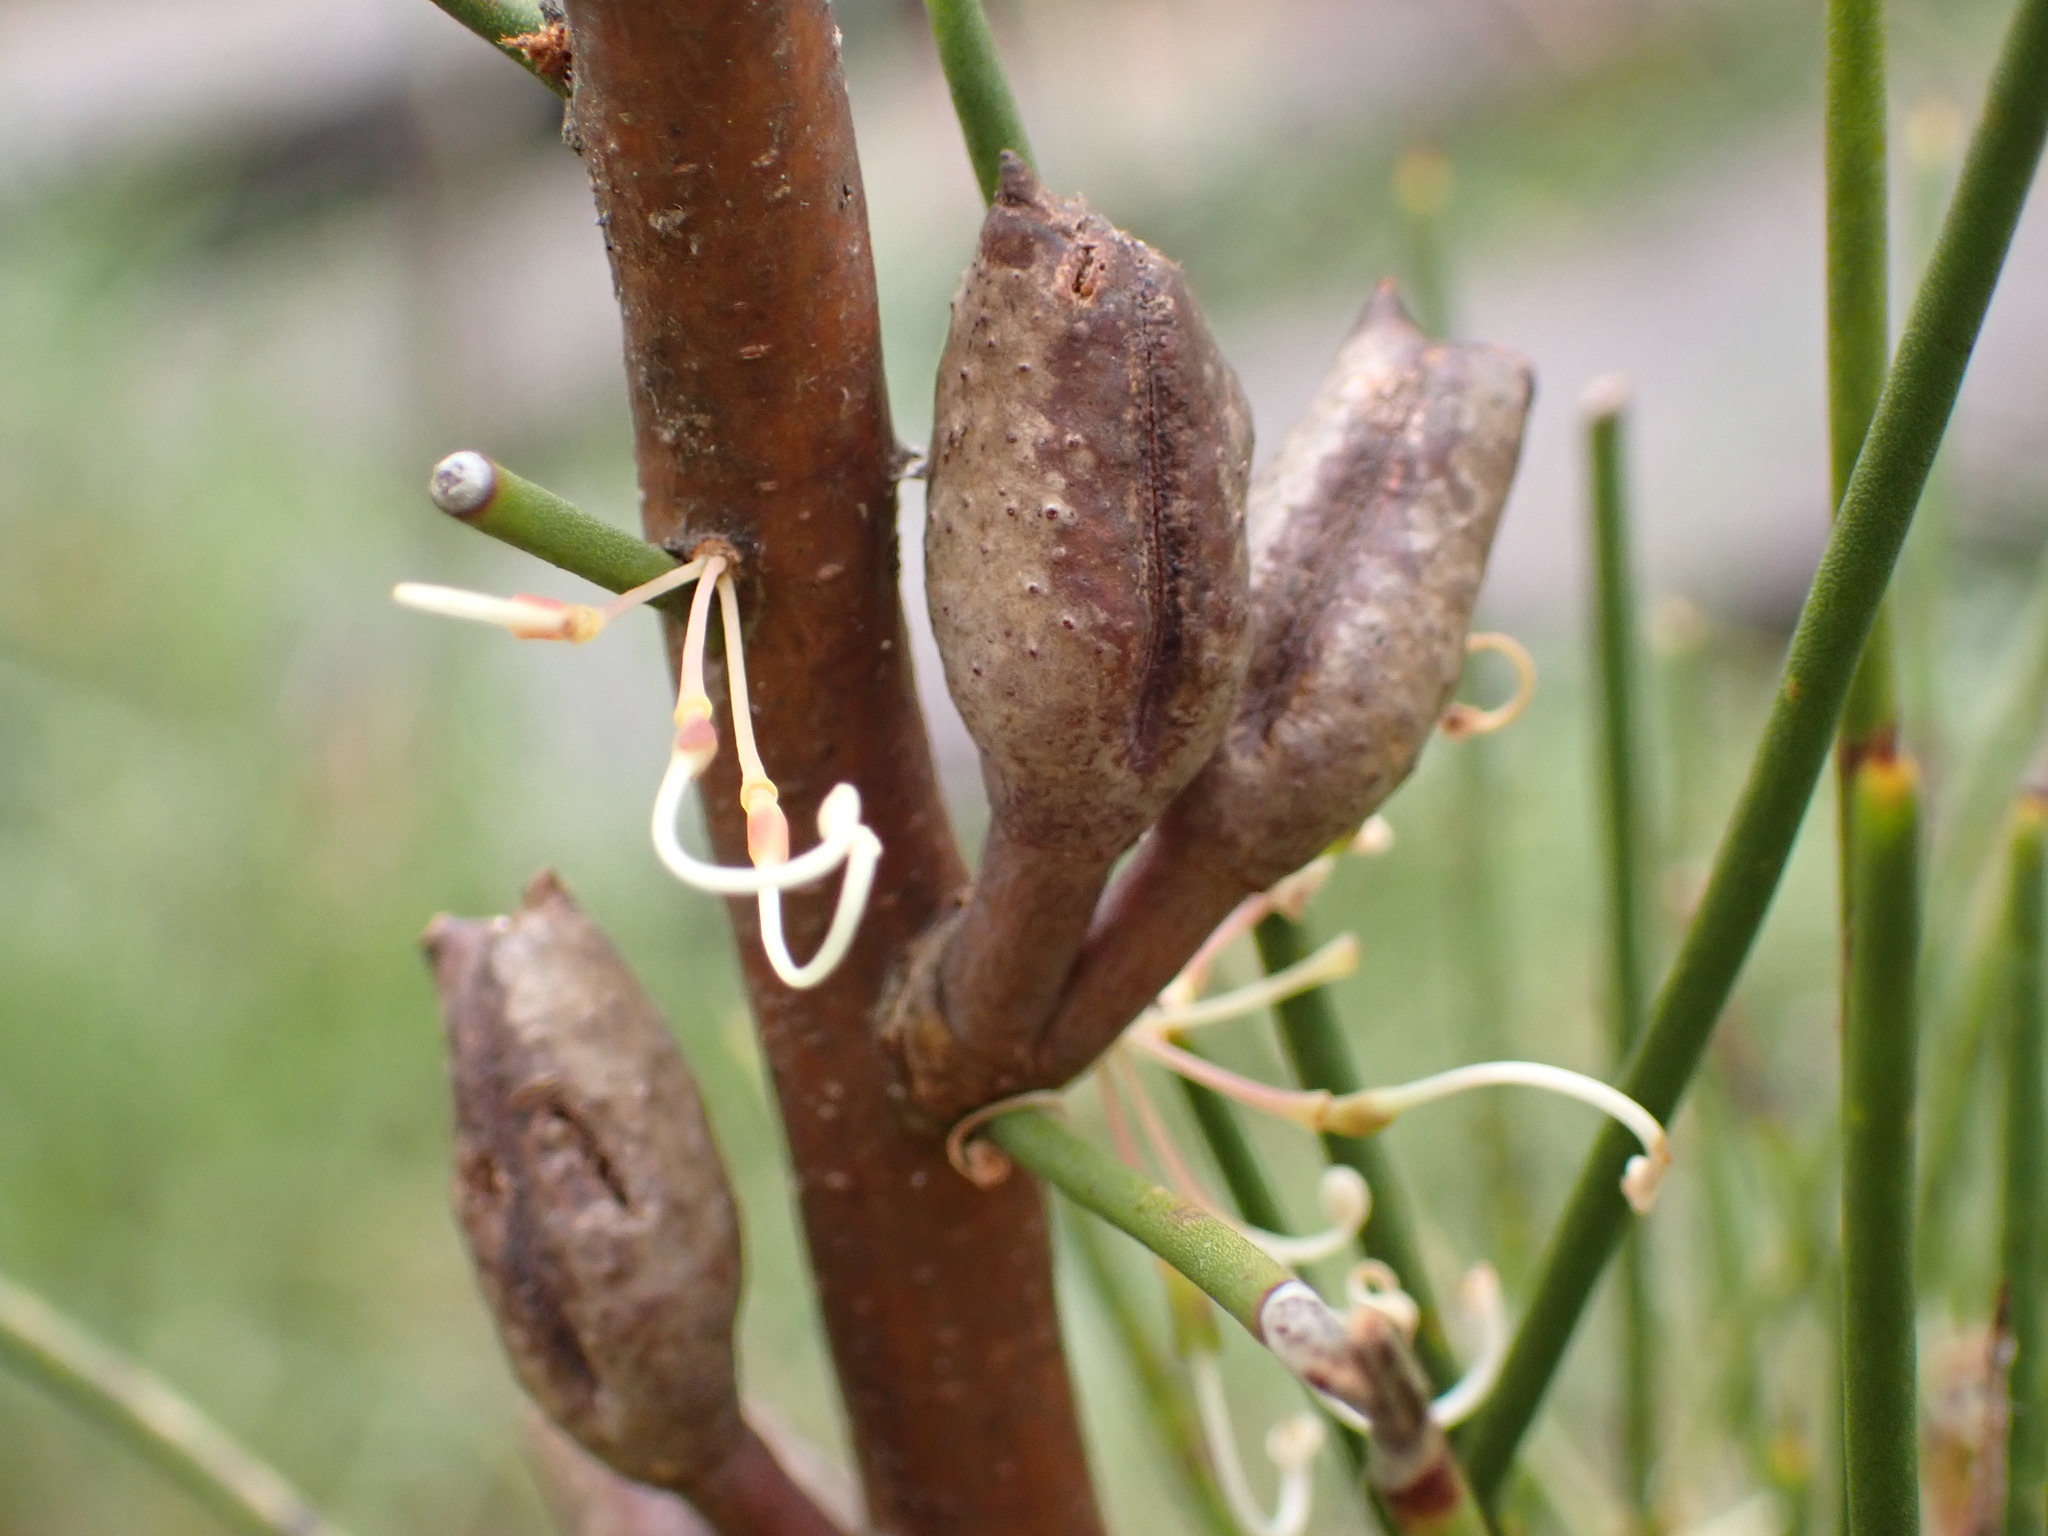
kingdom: Plantae
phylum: Tracheophyta
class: Magnoliopsida
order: Proteales
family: Proteaceae
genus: Hakea
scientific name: Hakea microcarpa
